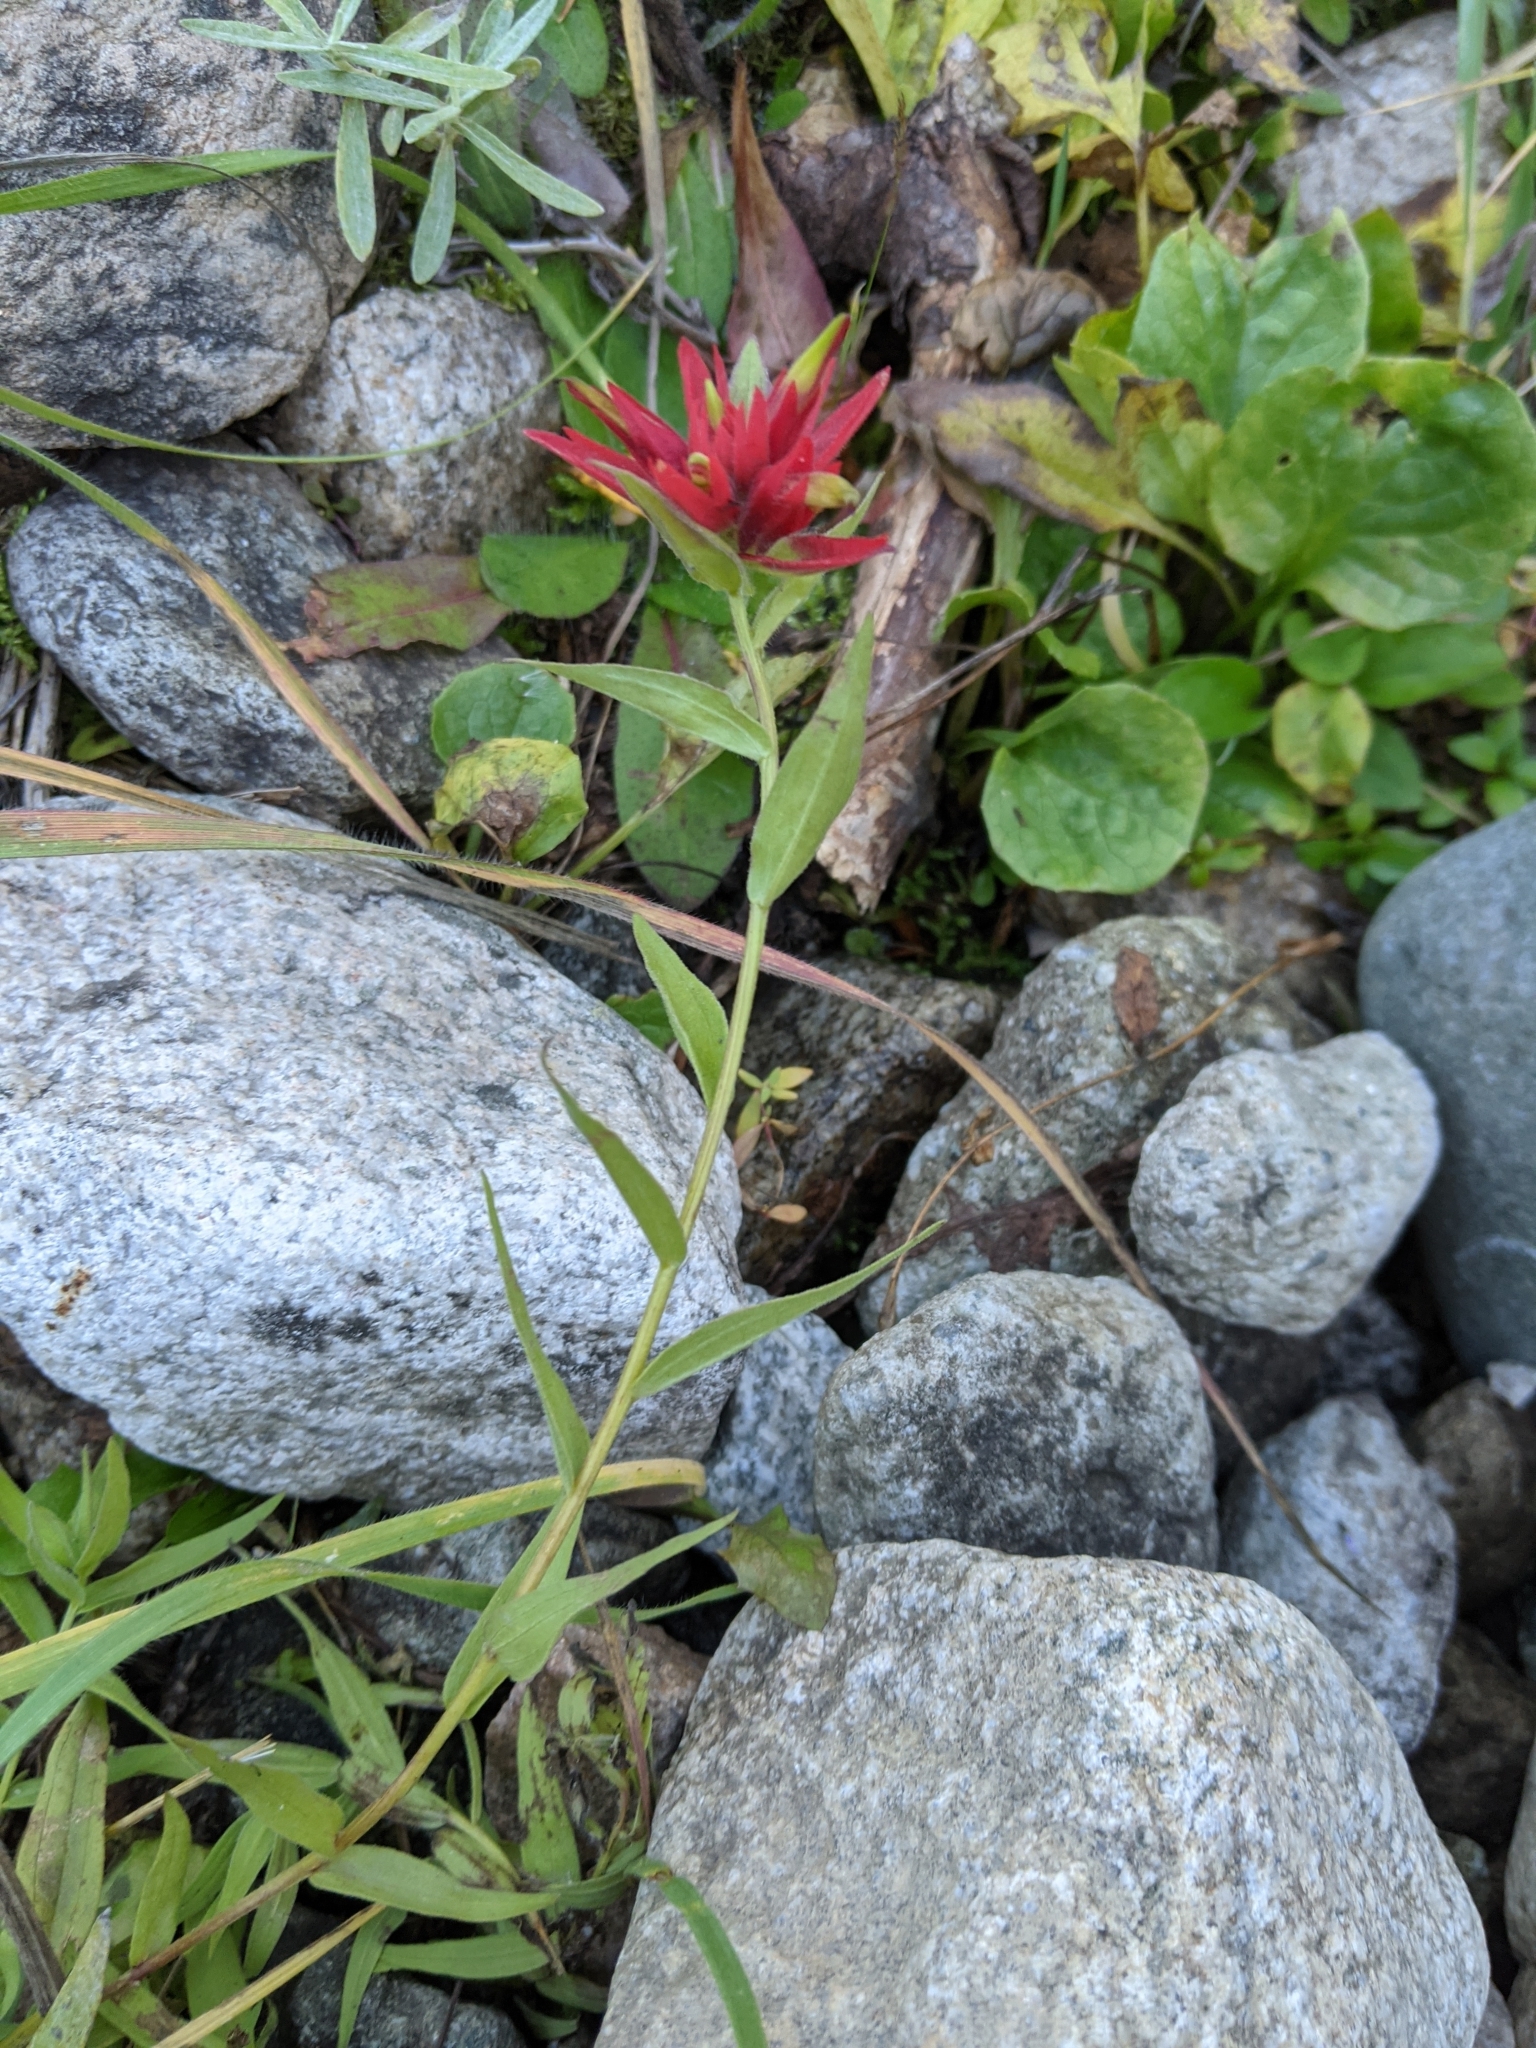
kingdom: Plantae
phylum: Tracheophyta
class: Magnoliopsida
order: Lamiales
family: Orobanchaceae
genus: Castilleja
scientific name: Castilleja elmeri
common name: Elmer's paintbrush
